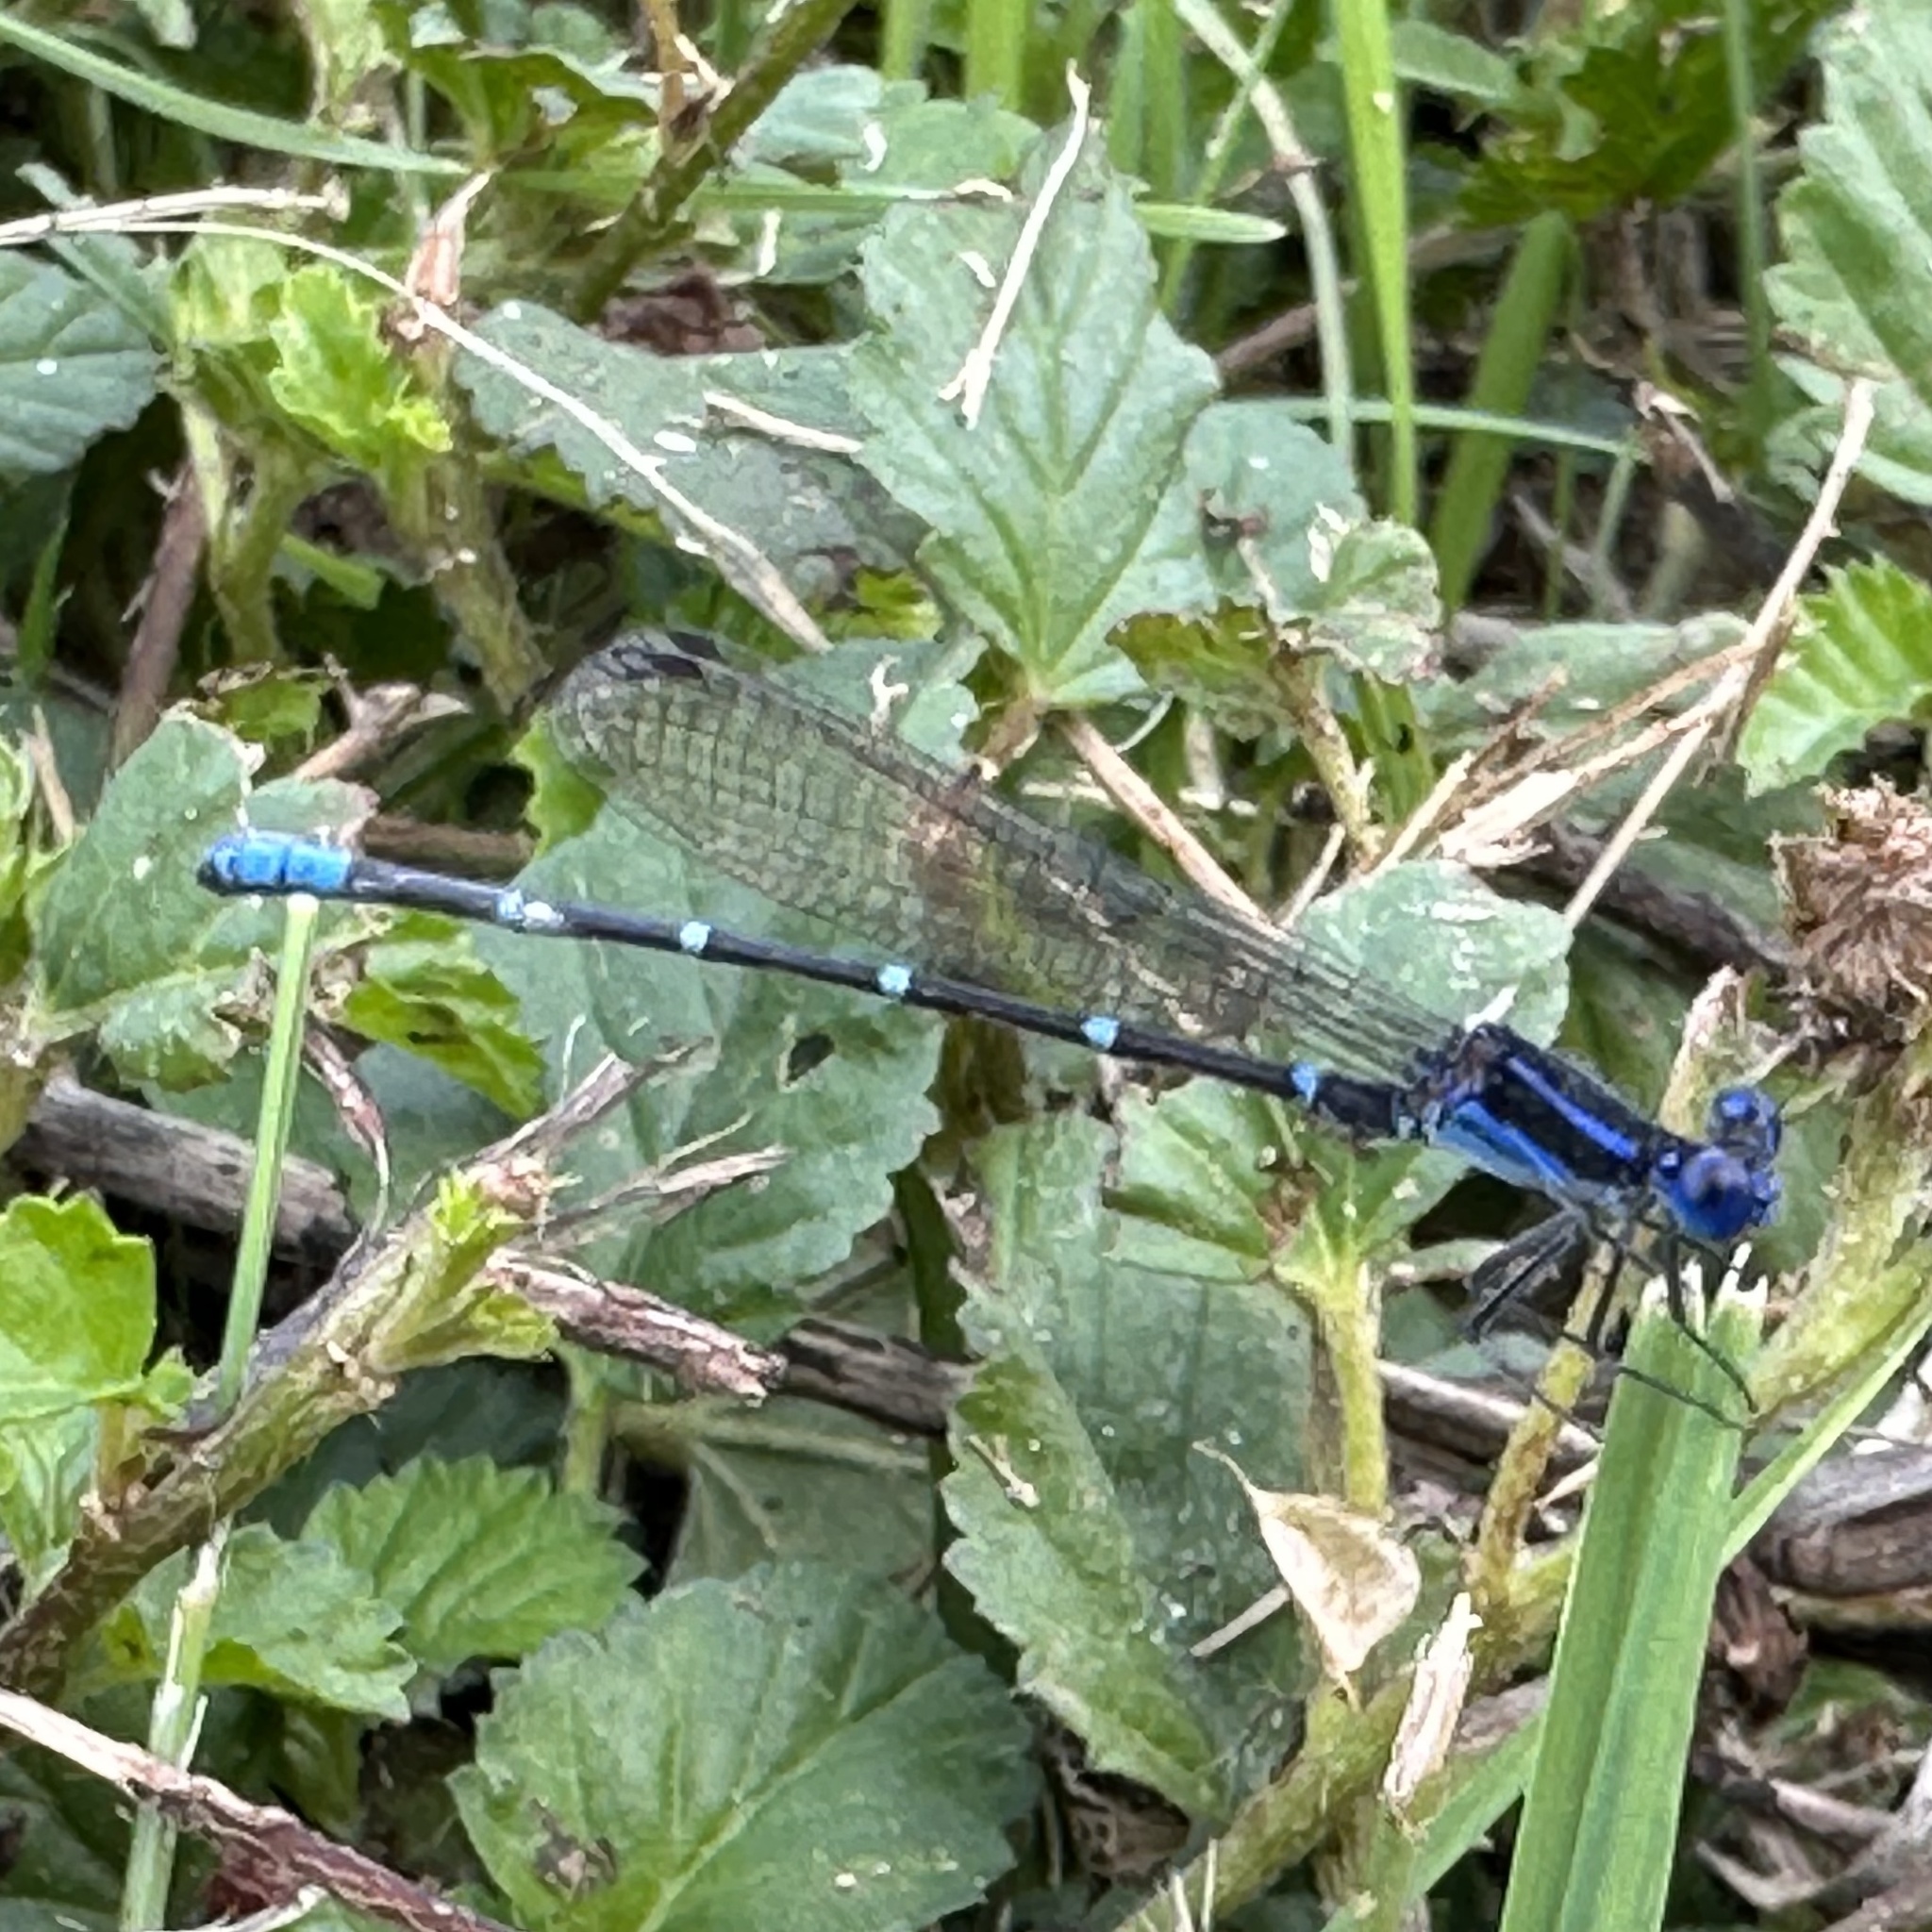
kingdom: Animalia
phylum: Arthropoda
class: Insecta
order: Odonata
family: Coenagrionidae
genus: Argia
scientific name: Argia sedula
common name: Blue-ringed dancer
